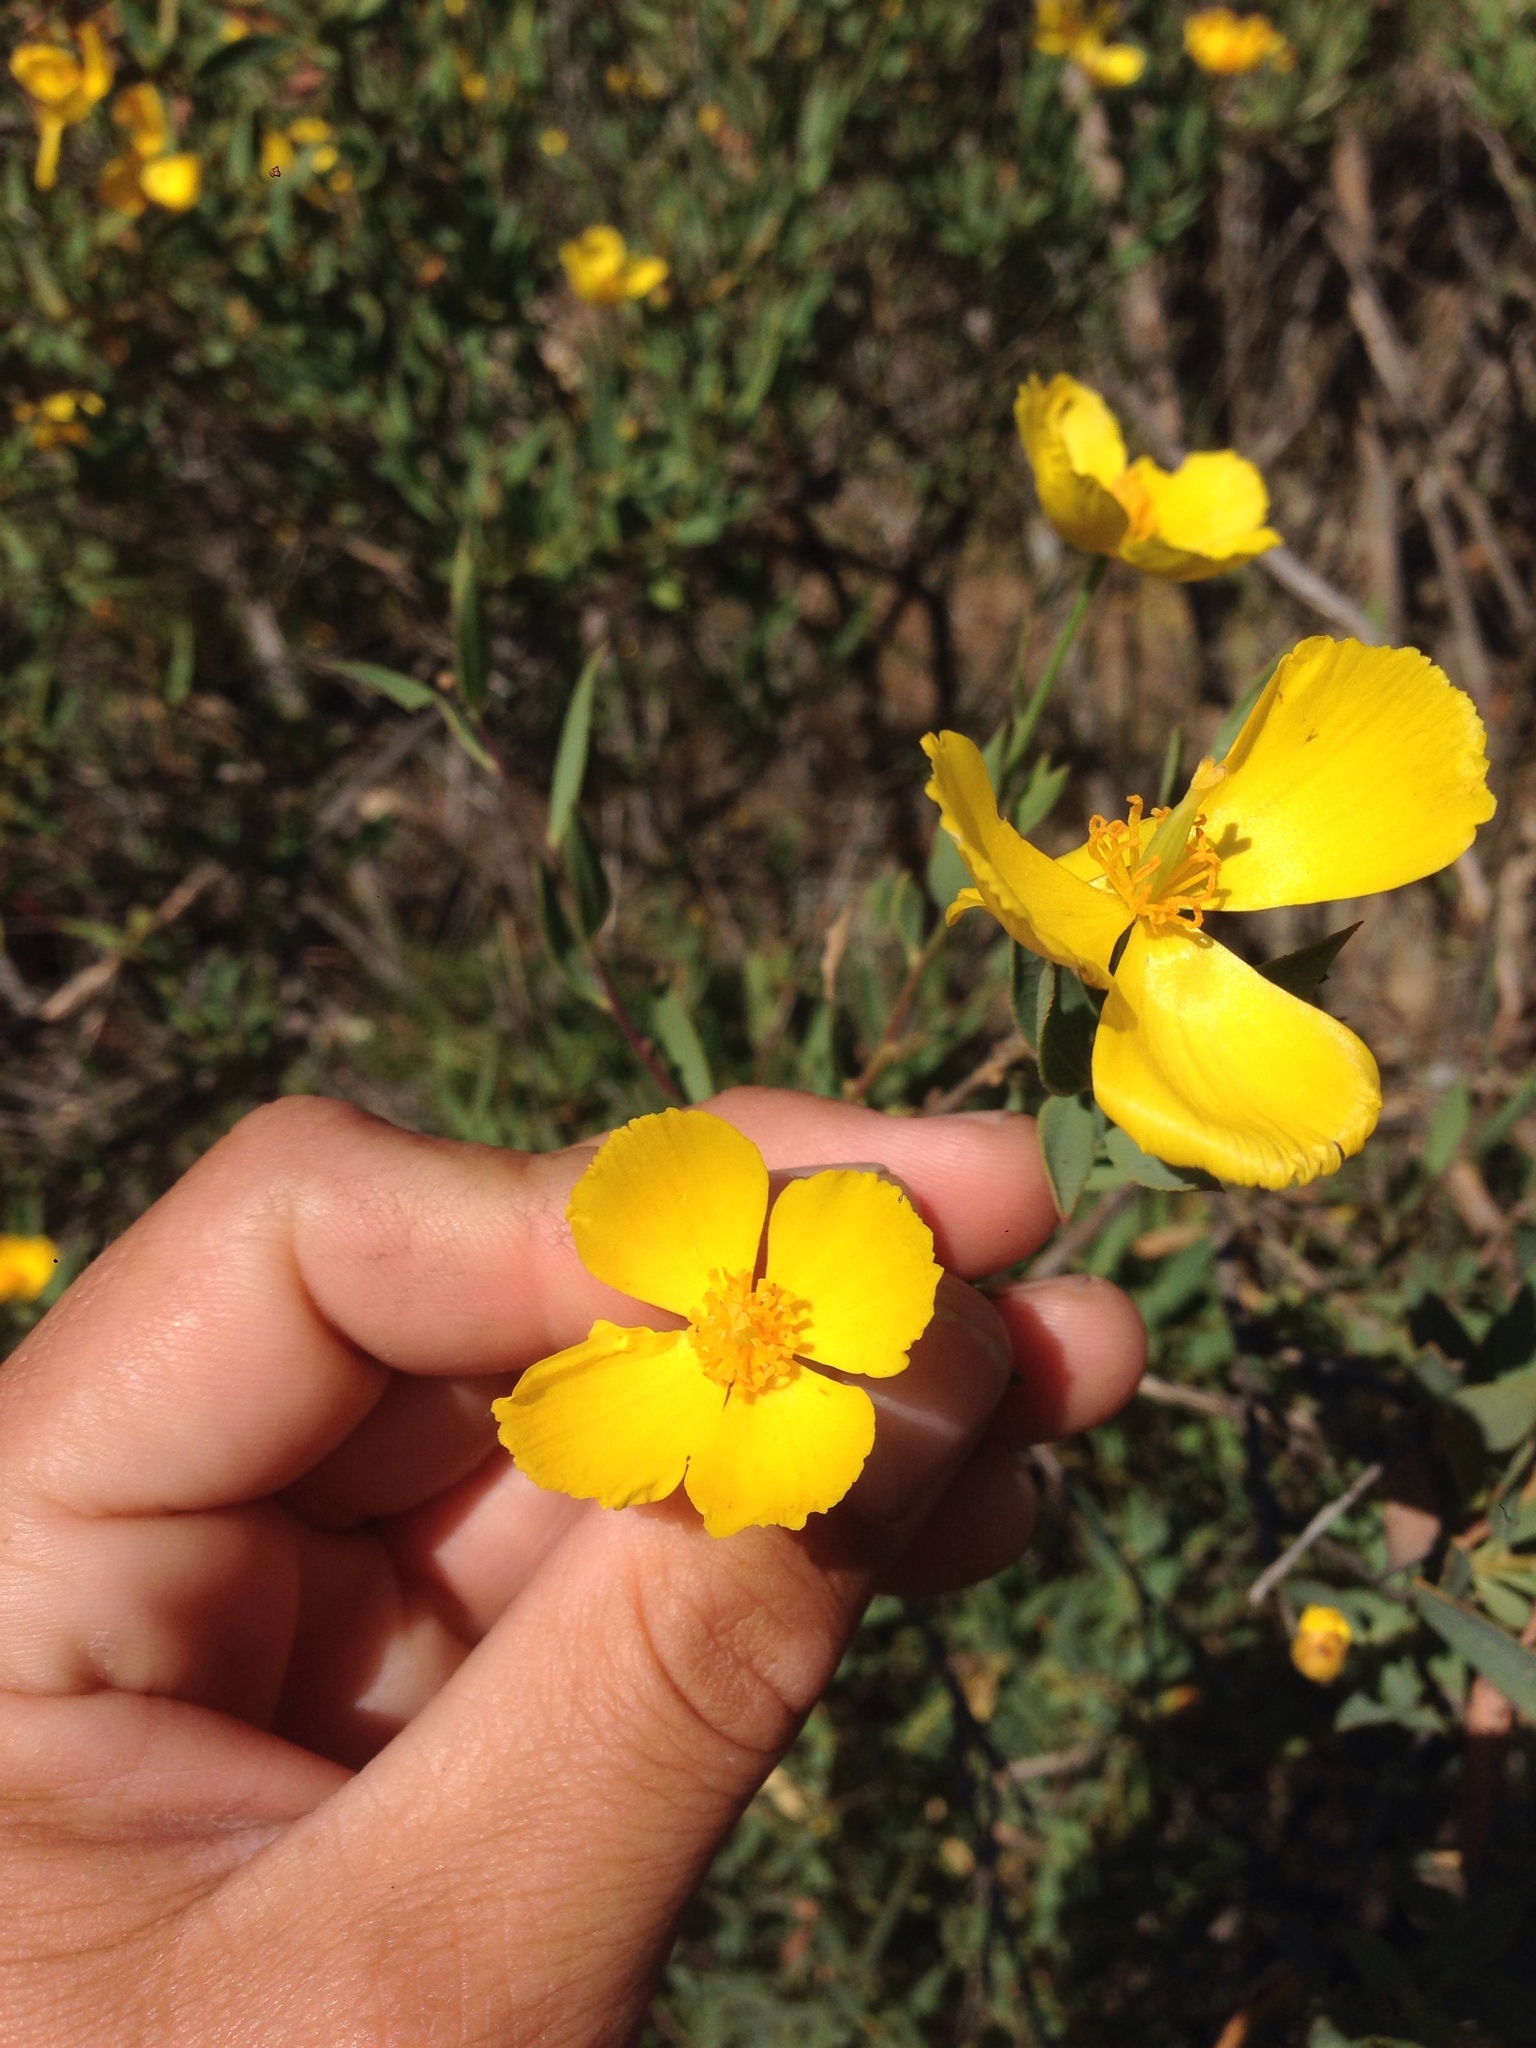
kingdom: Plantae
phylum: Tracheophyta
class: Magnoliopsida
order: Ranunculales
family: Papaveraceae
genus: Dendromecon
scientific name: Dendromecon rigida
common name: Tree poppy
